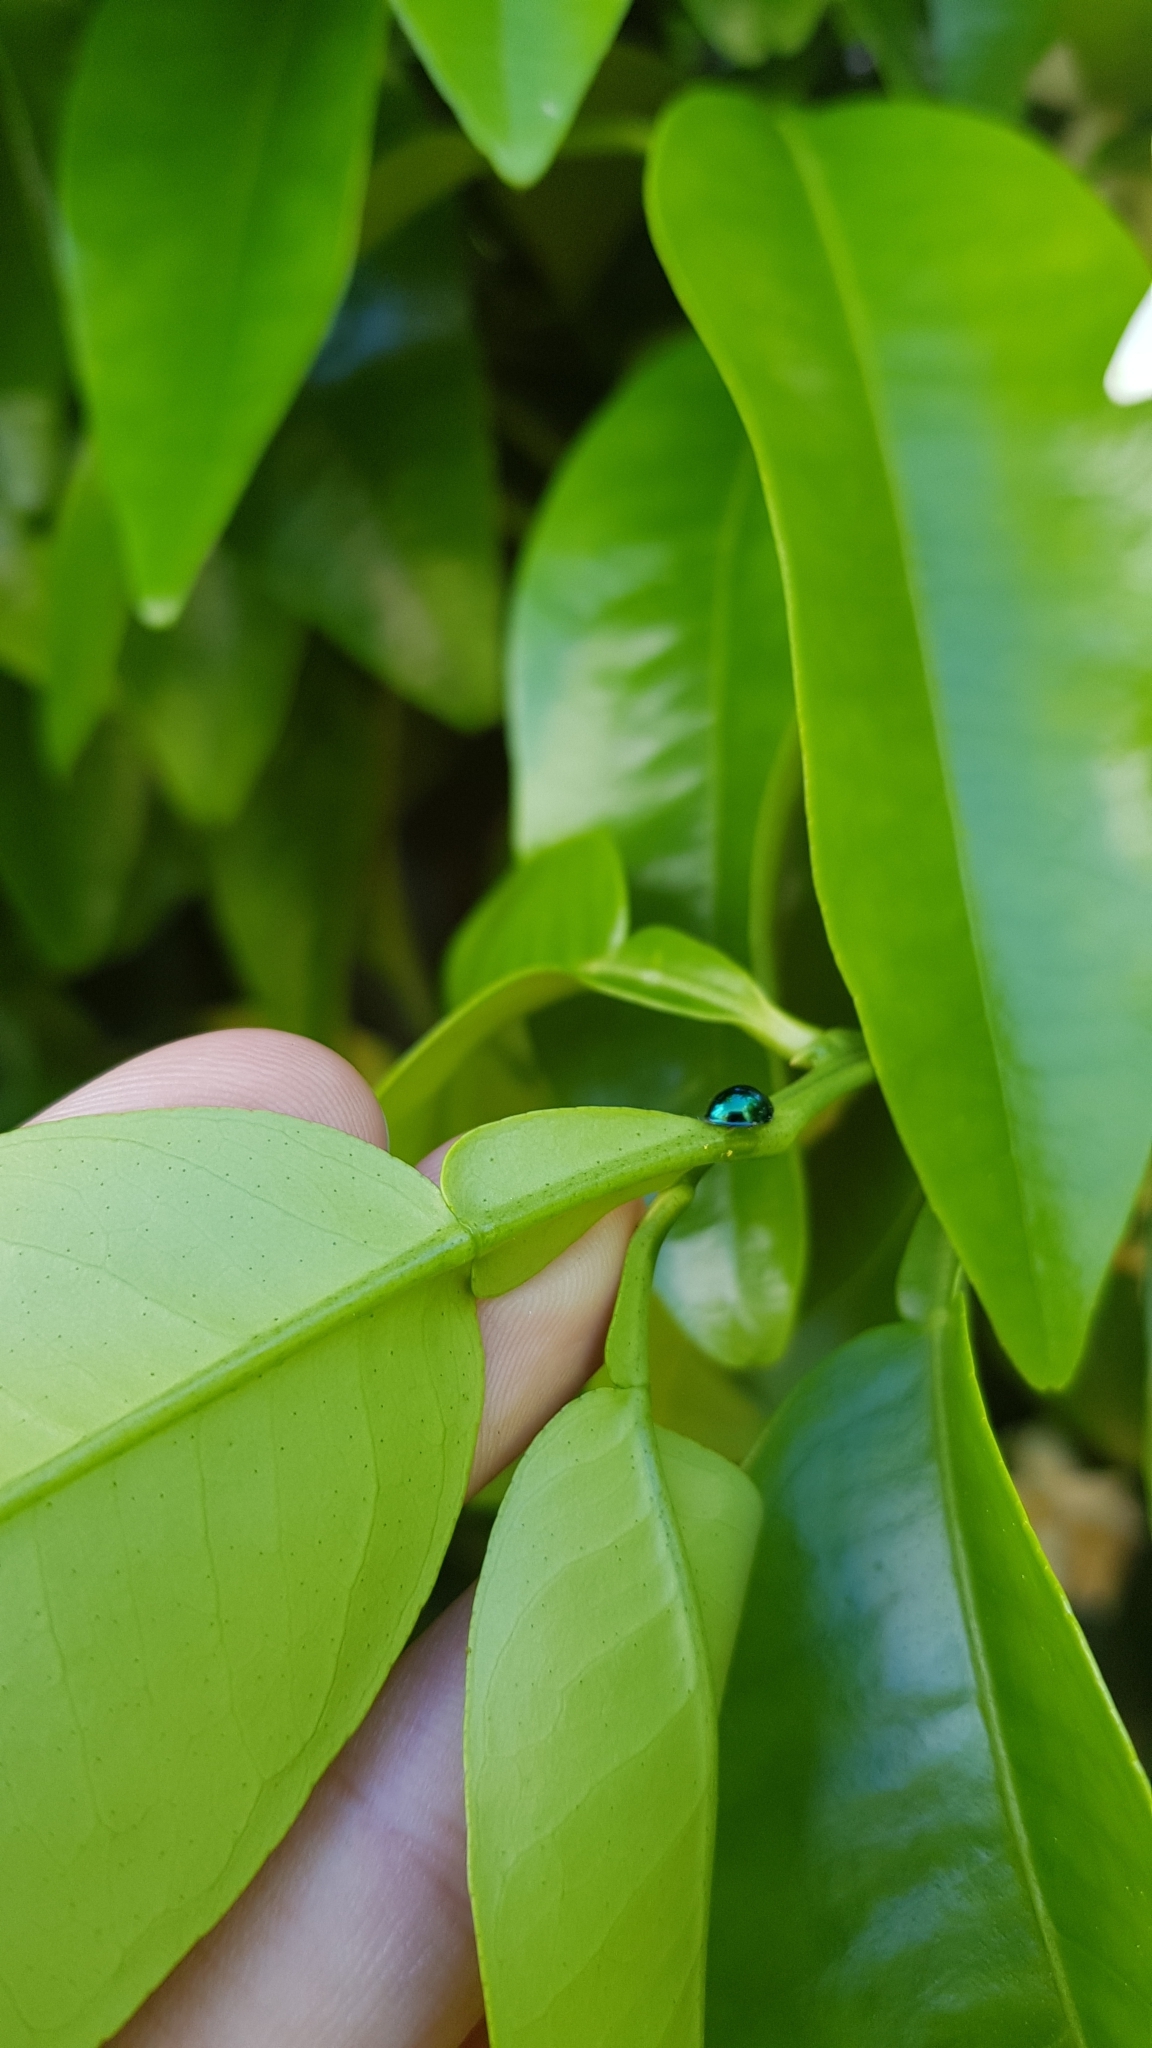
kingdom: Animalia
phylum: Arthropoda
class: Insecta
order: Coleoptera
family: Coccinellidae
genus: Halmus
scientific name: Halmus chalybeus
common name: Steel blue ladybird beetle
